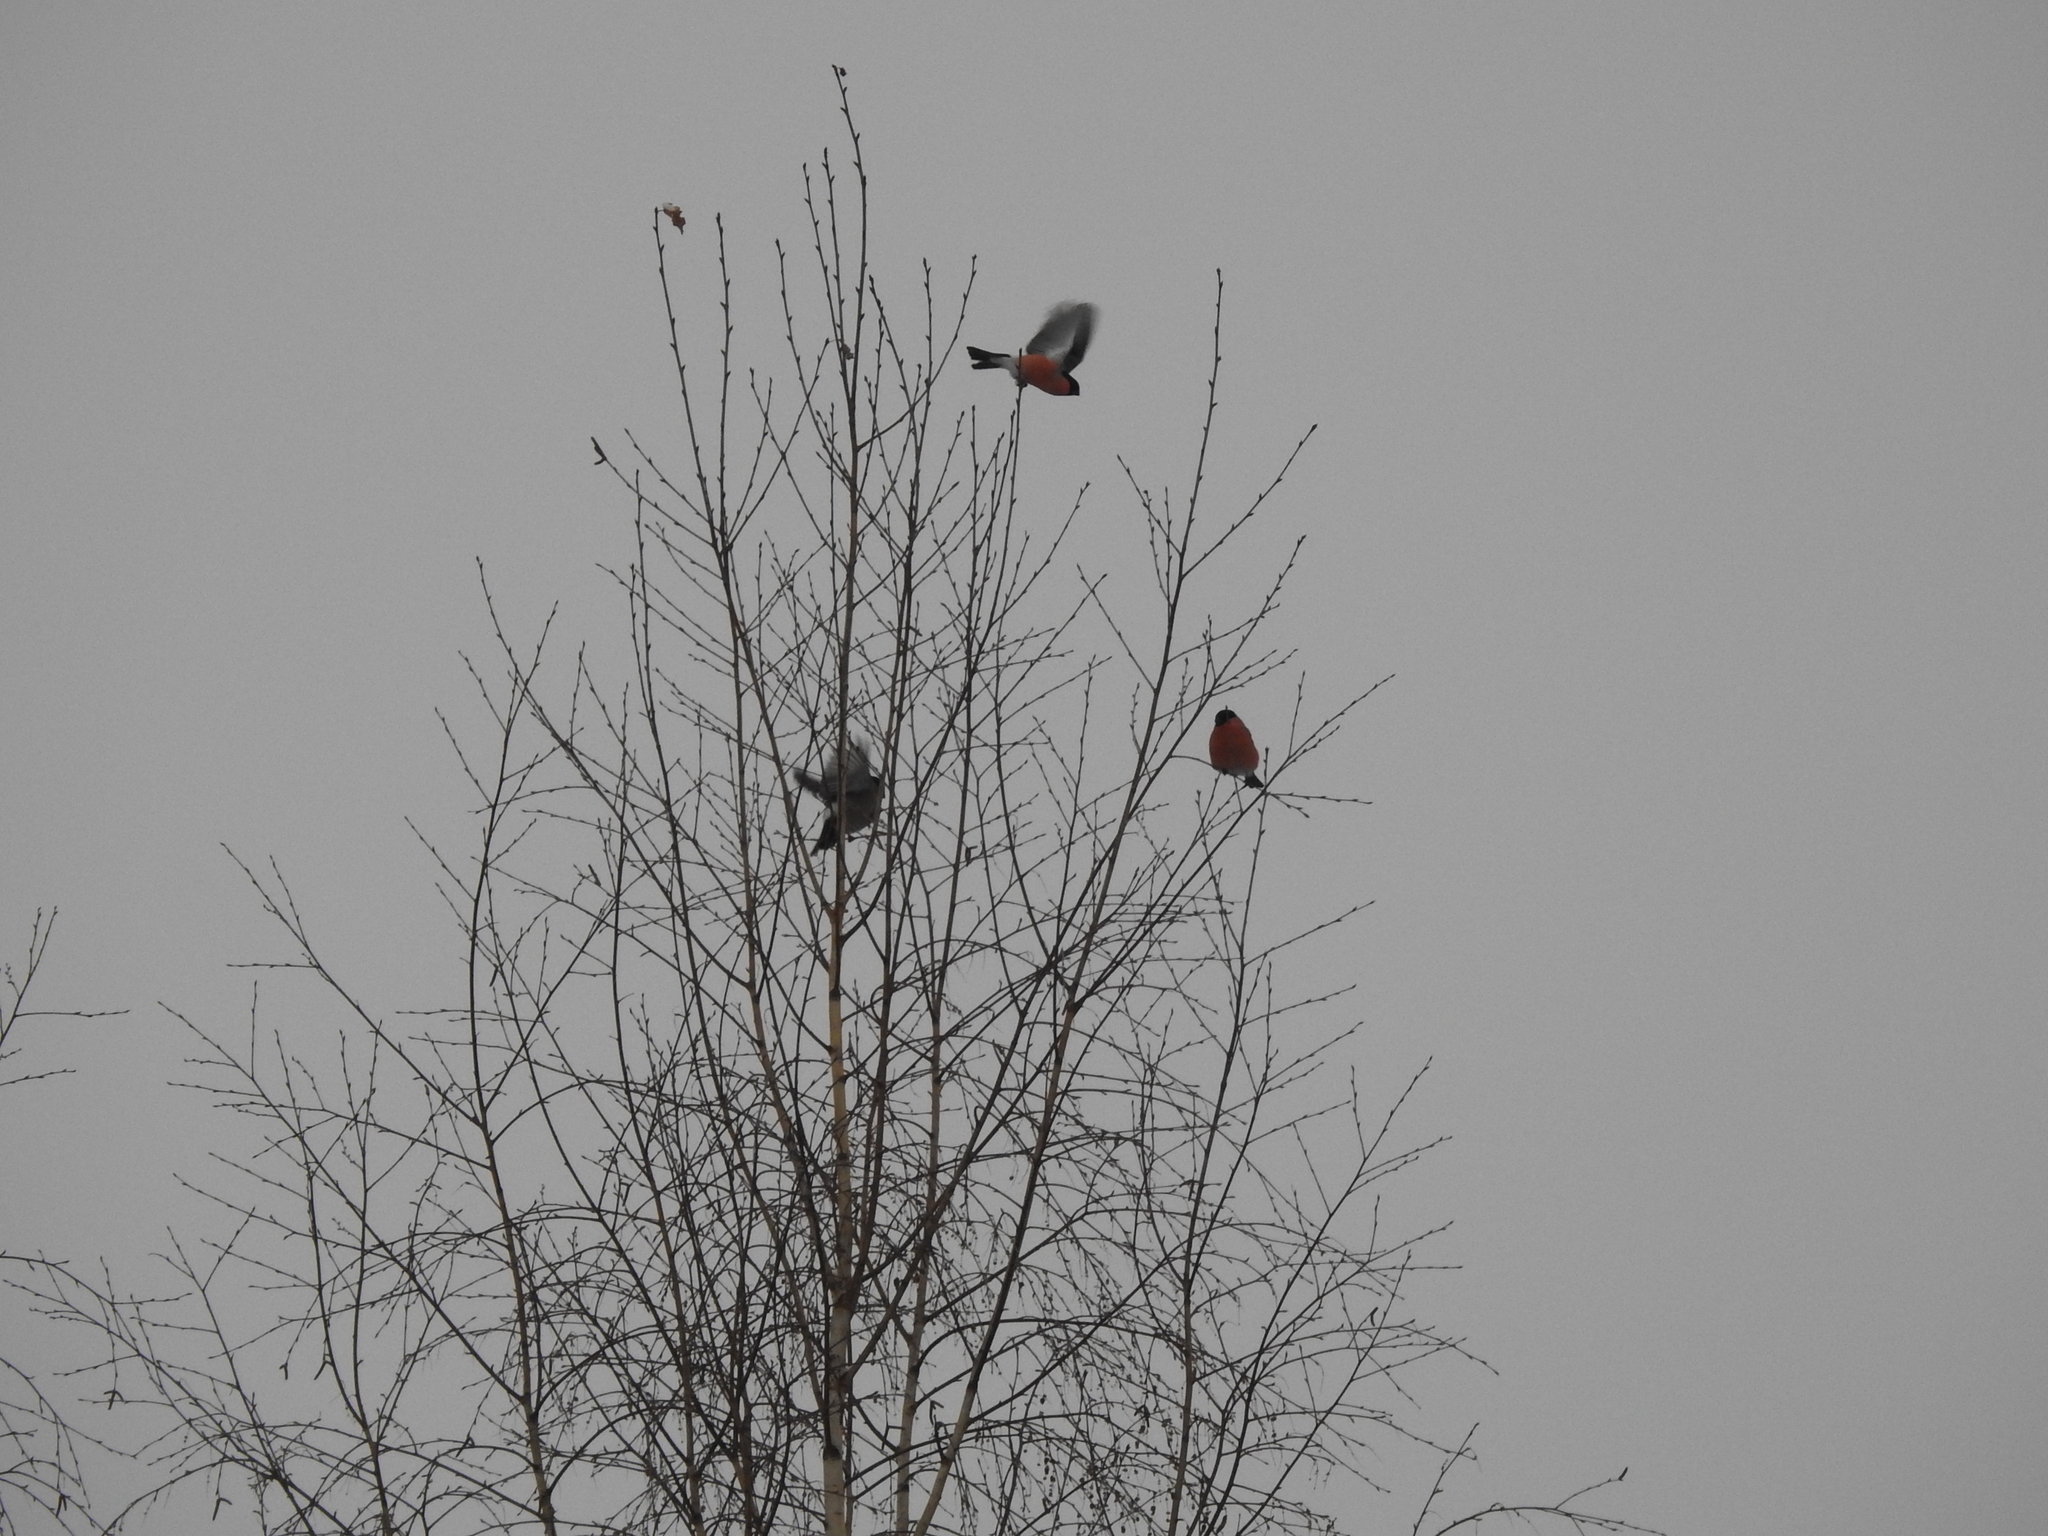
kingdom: Animalia
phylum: Chordata
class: Aves
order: Passeriformes
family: Fringillidae
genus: Pyrrhula
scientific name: Pyrrhula pyrrhula
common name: Eurasian bullfinch
